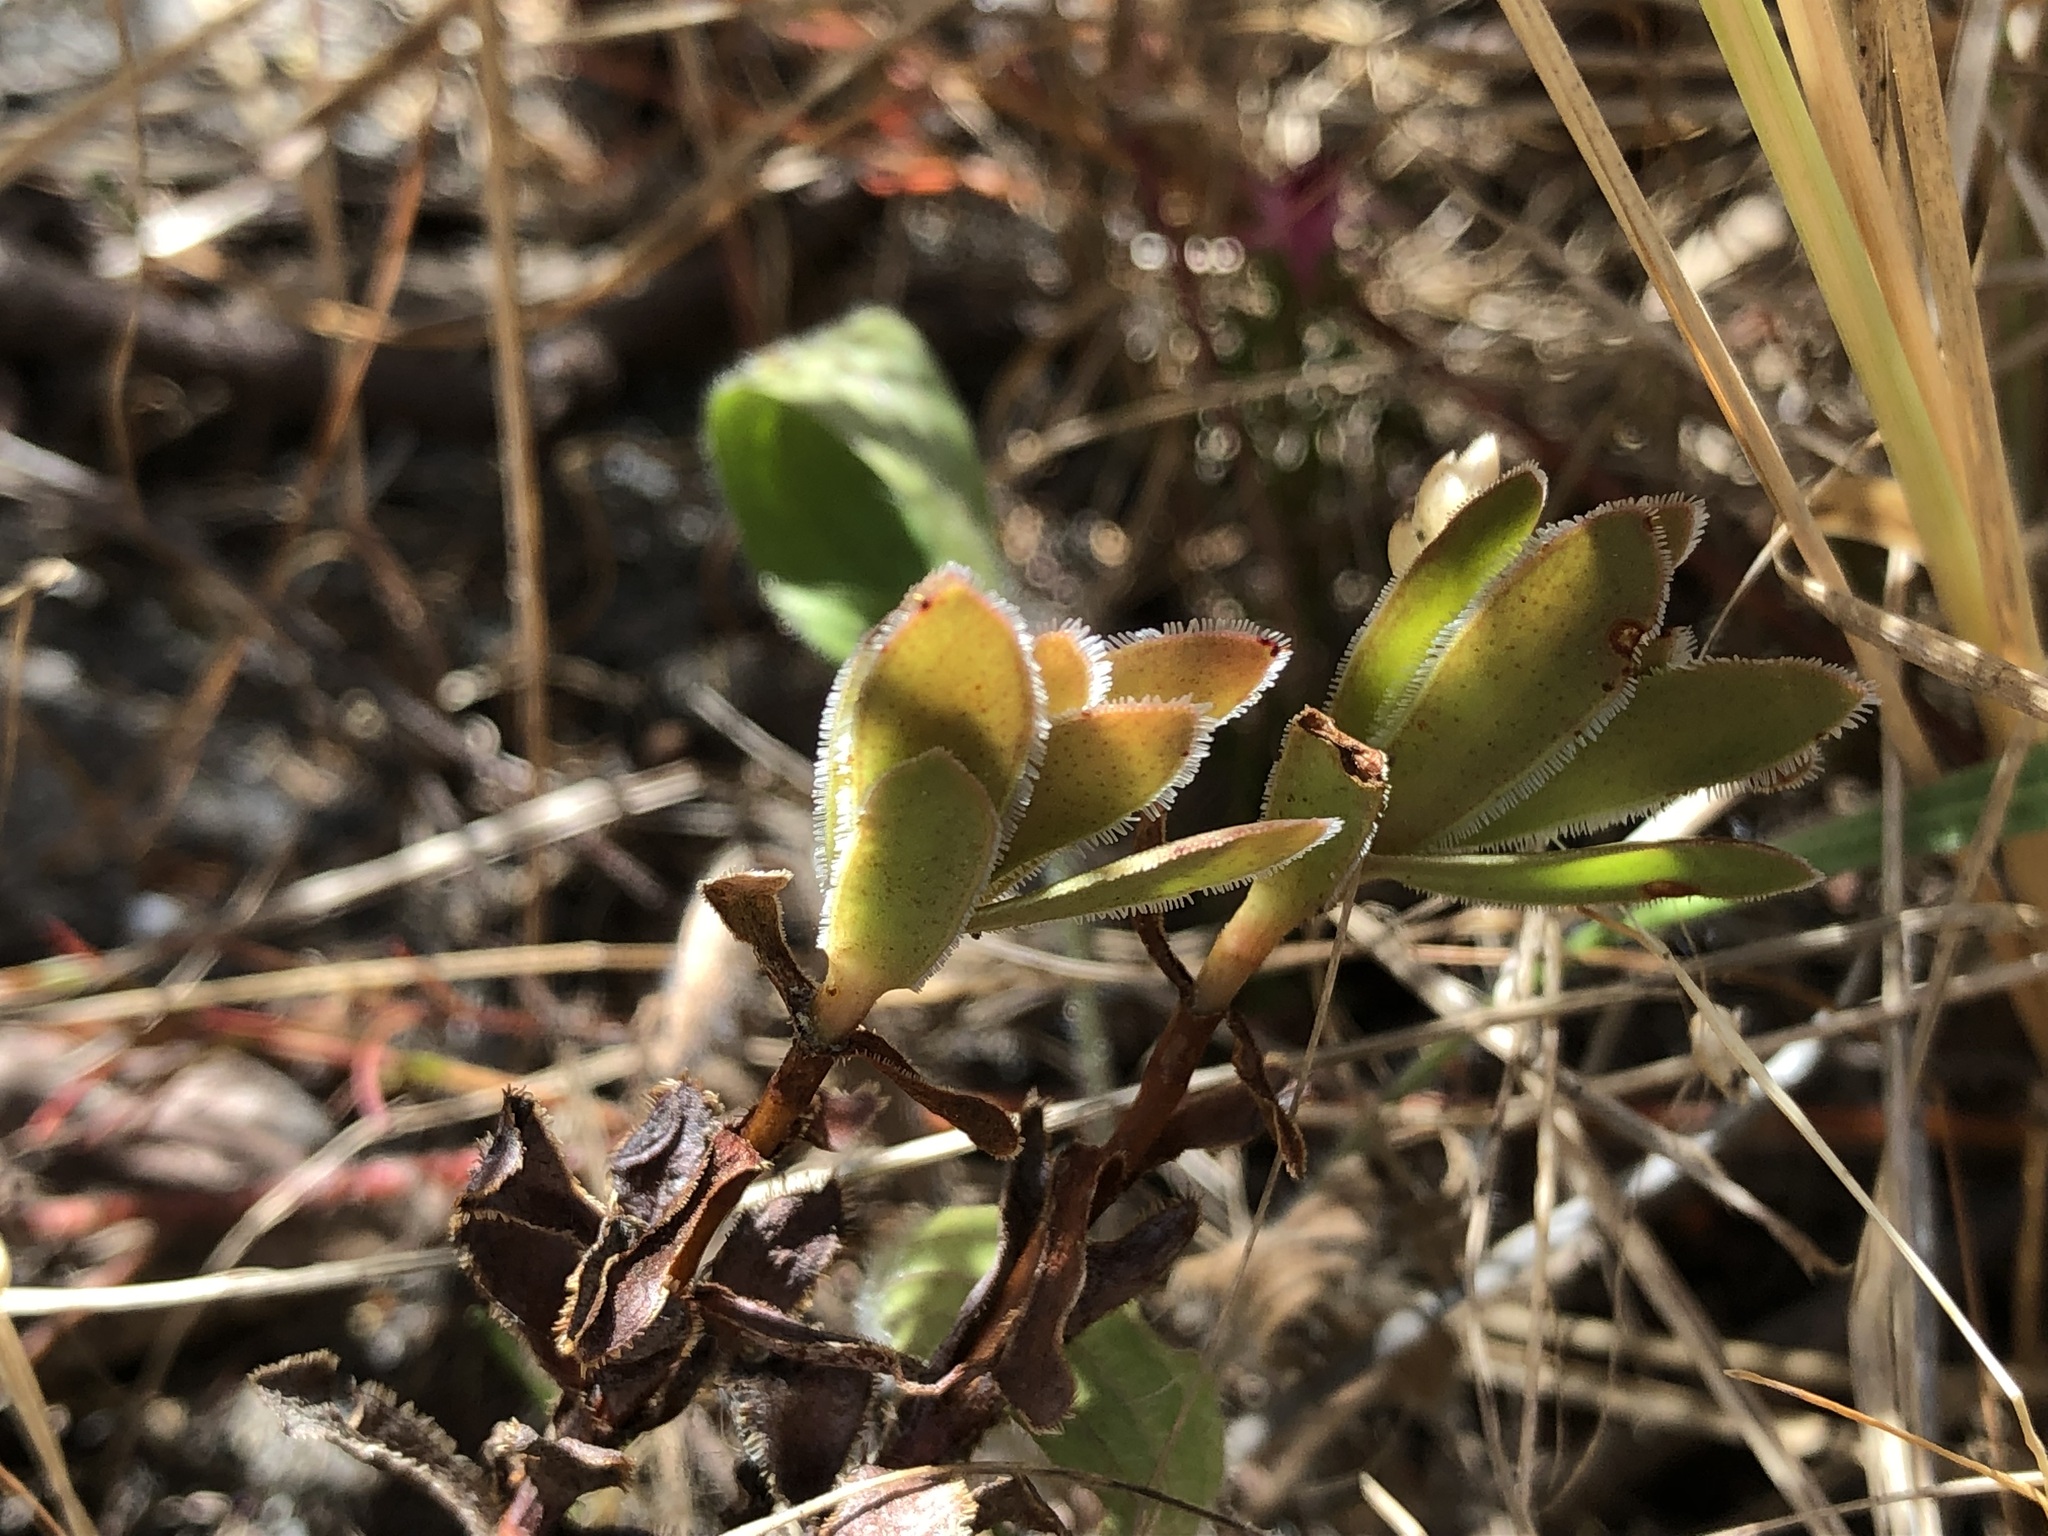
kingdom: Plantae
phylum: Tracheophyta
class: Magnoliopsida
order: Saxifragales
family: Crassulaceae
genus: Crassula
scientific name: Crassula fallax
